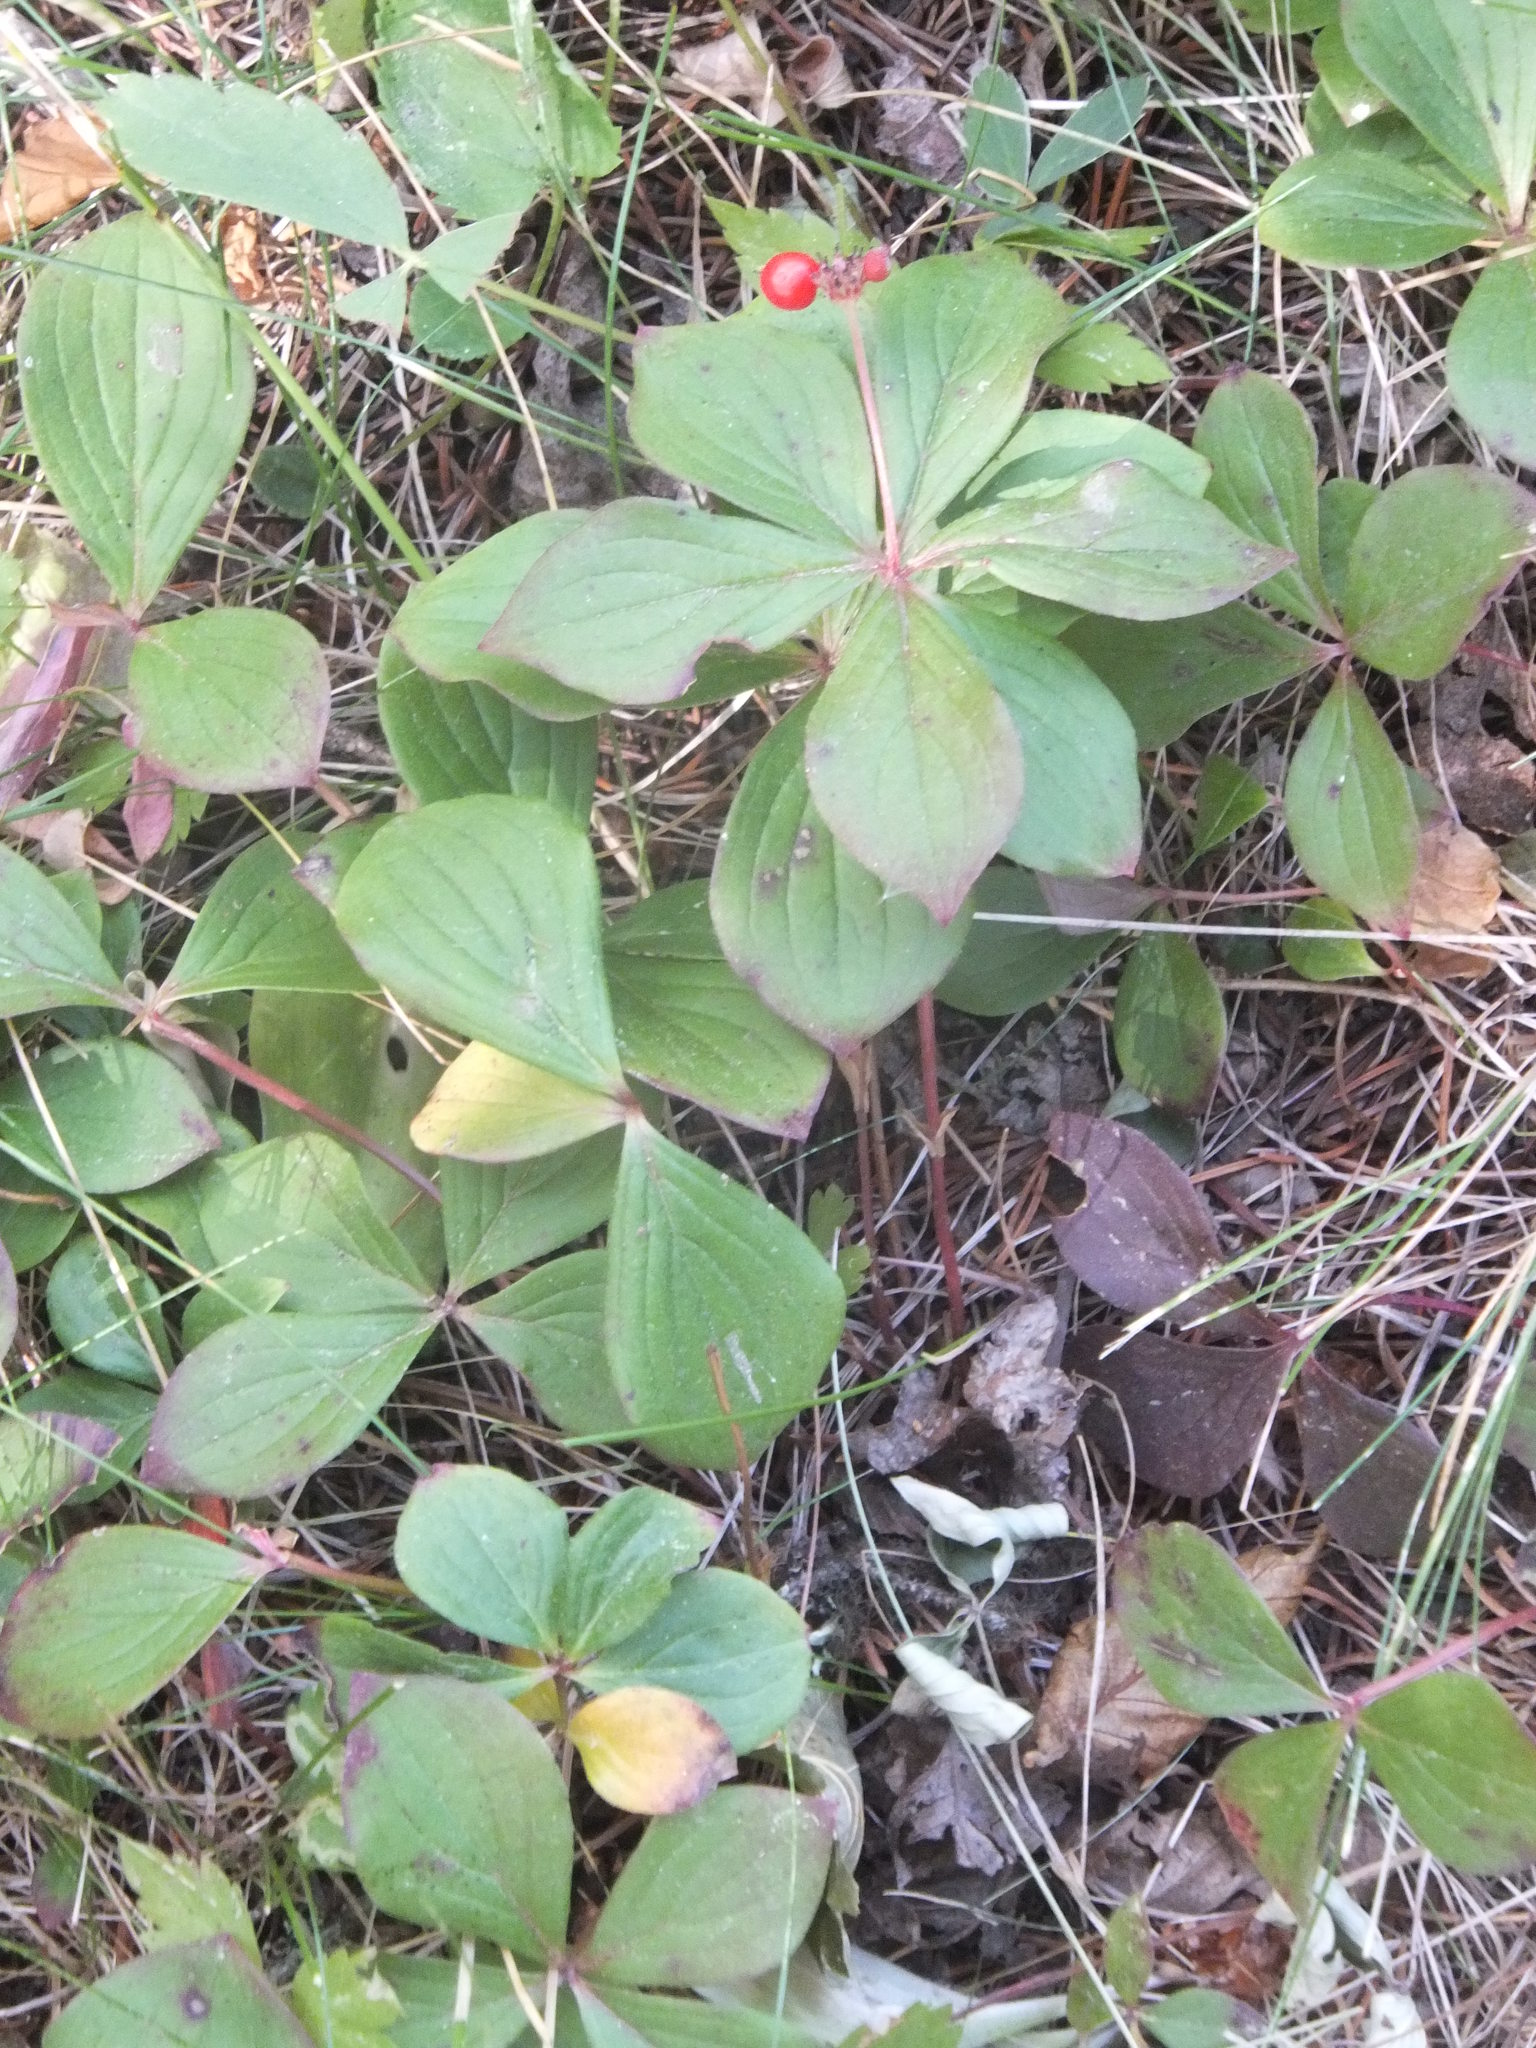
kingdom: Plantae
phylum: Tracheophyta
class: Magnoliopsida
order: Cornales
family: Cornaceae
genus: Cornus
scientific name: Cornus canadensis
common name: Creeping dogwood
